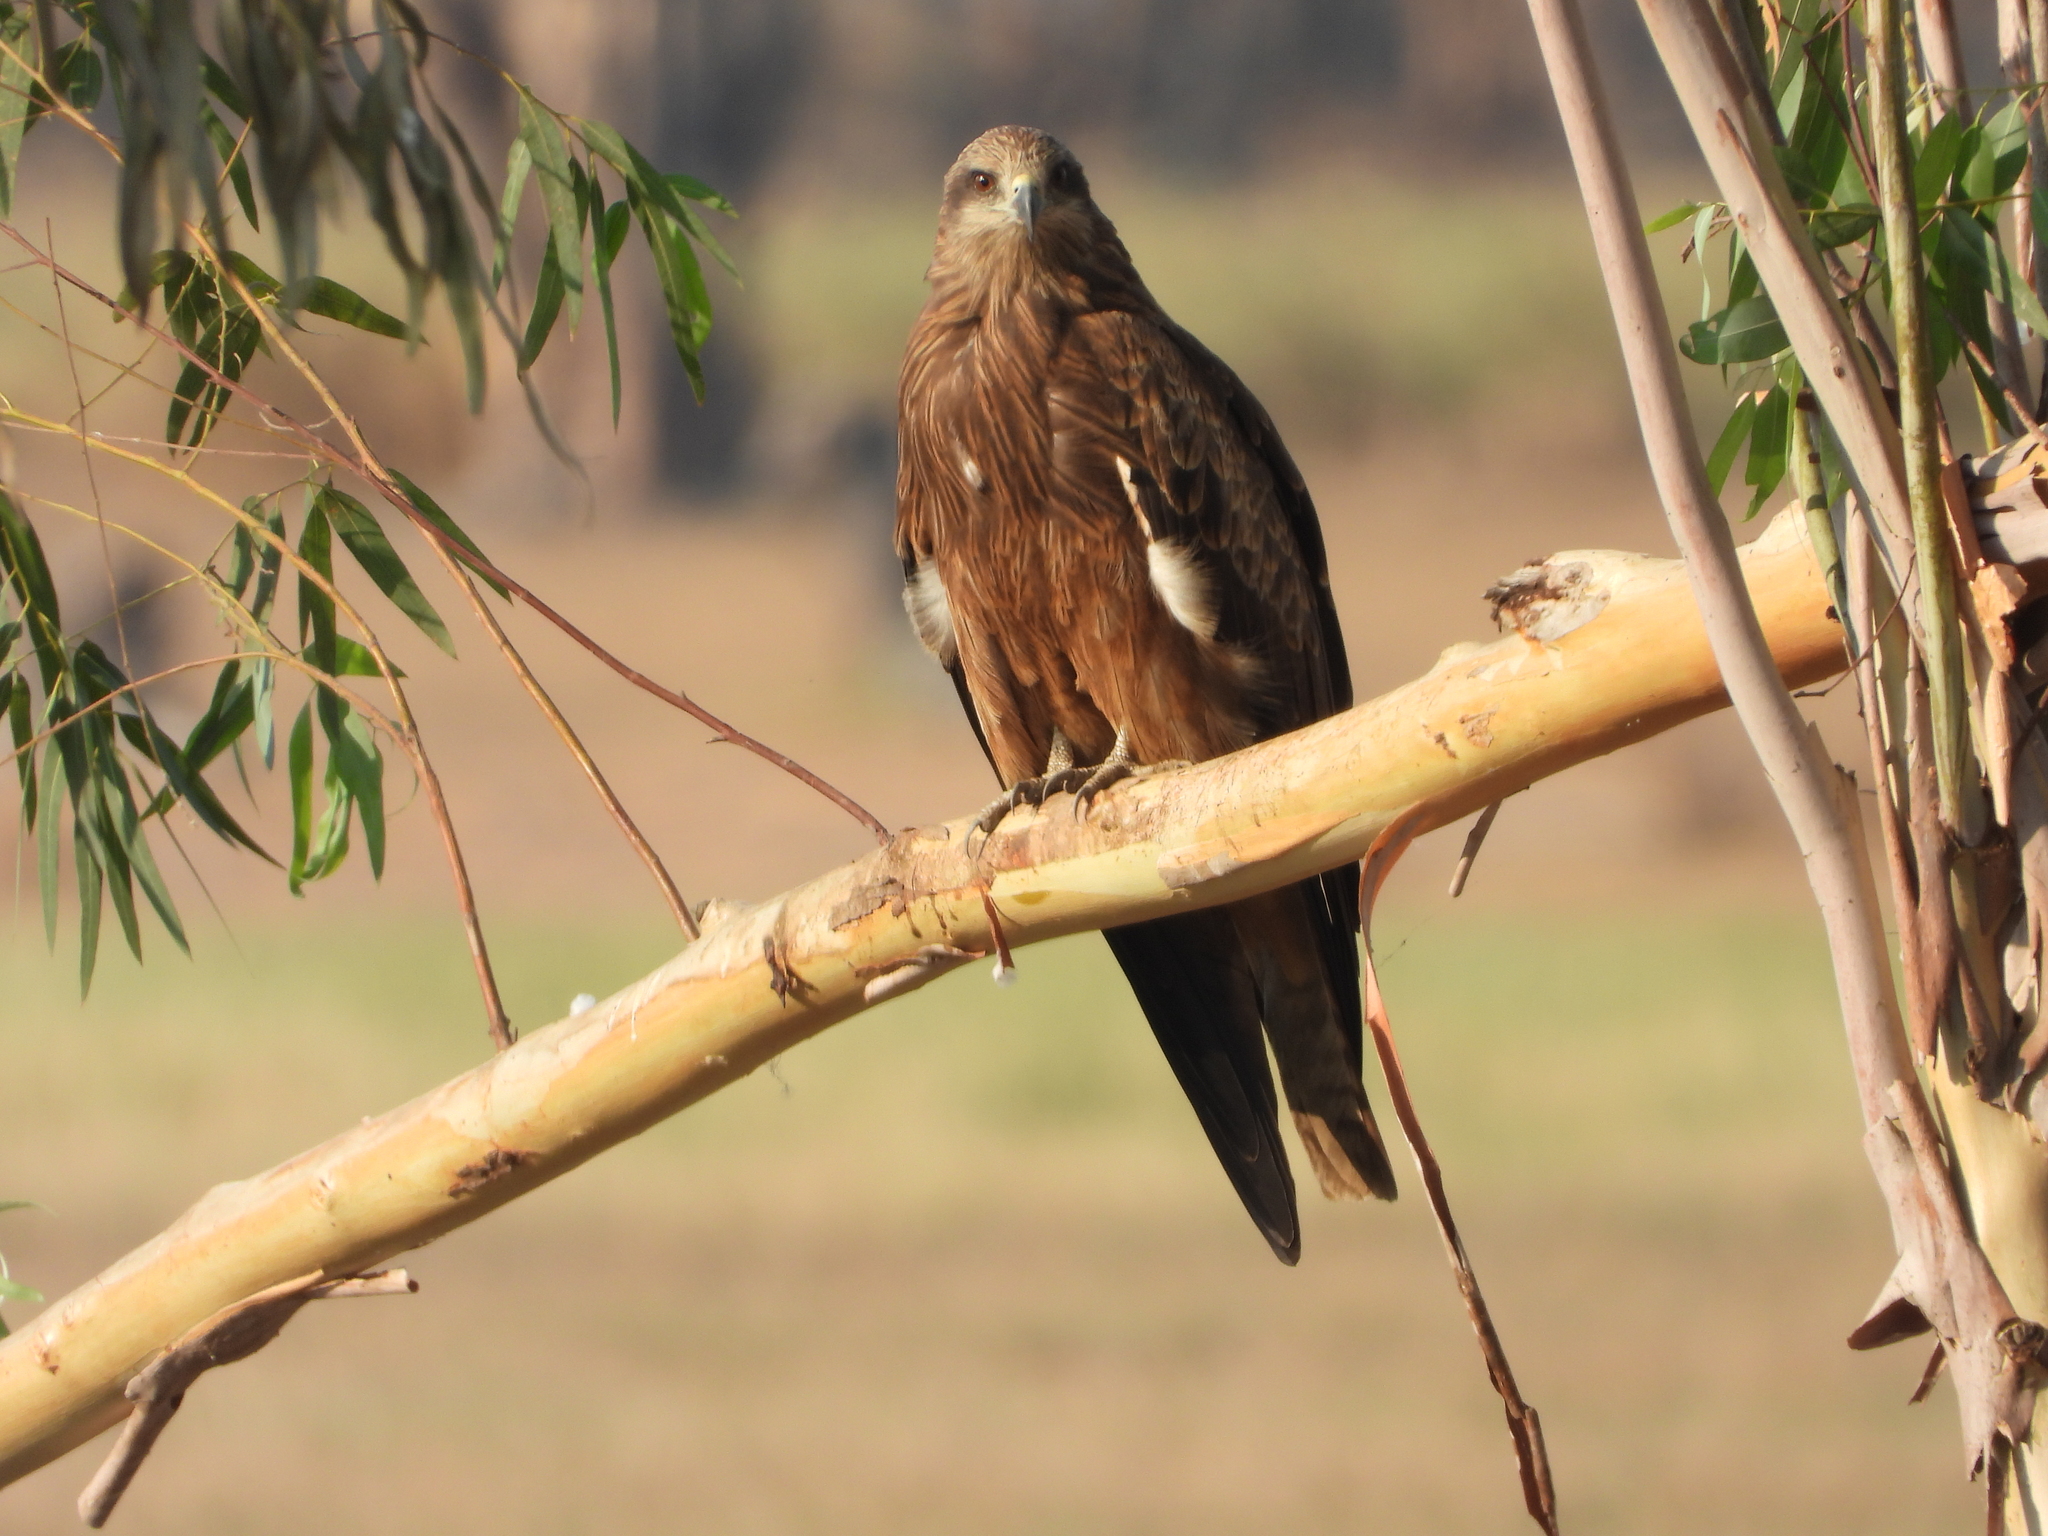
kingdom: Animalia
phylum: Chordata
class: Aves
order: Accipitriformes
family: Accipitridae
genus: Milvus
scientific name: Milvus migrans
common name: Black kite
